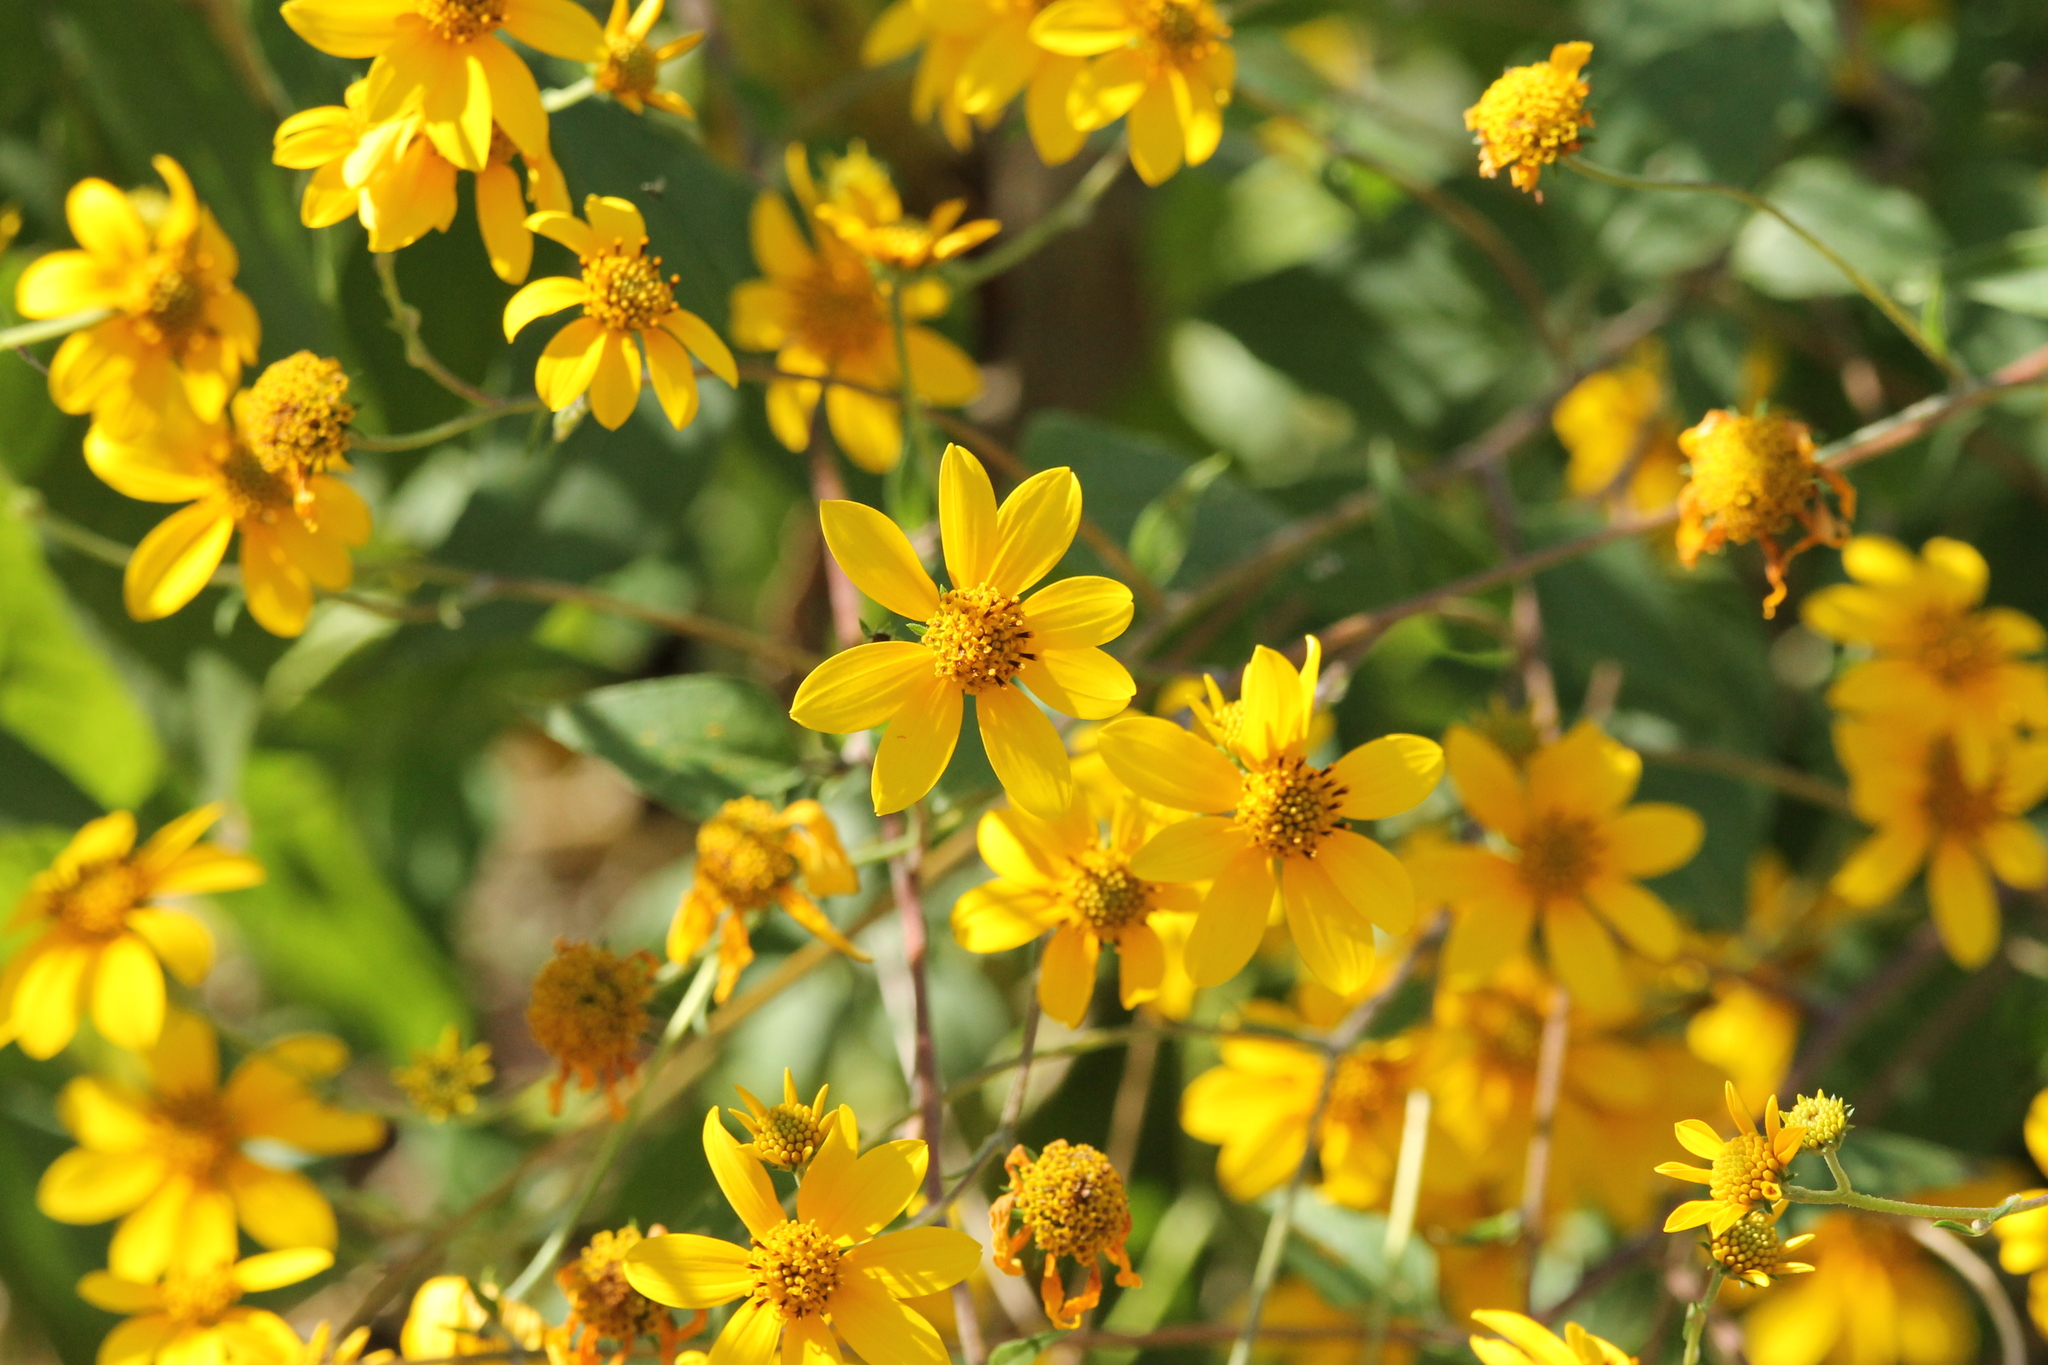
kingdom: Plantae
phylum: Tracheophyta
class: Magnoliopsida
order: Asterales
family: Asteraceae
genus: Viguiera
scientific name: Viguiera dentata
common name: Toothleaf
